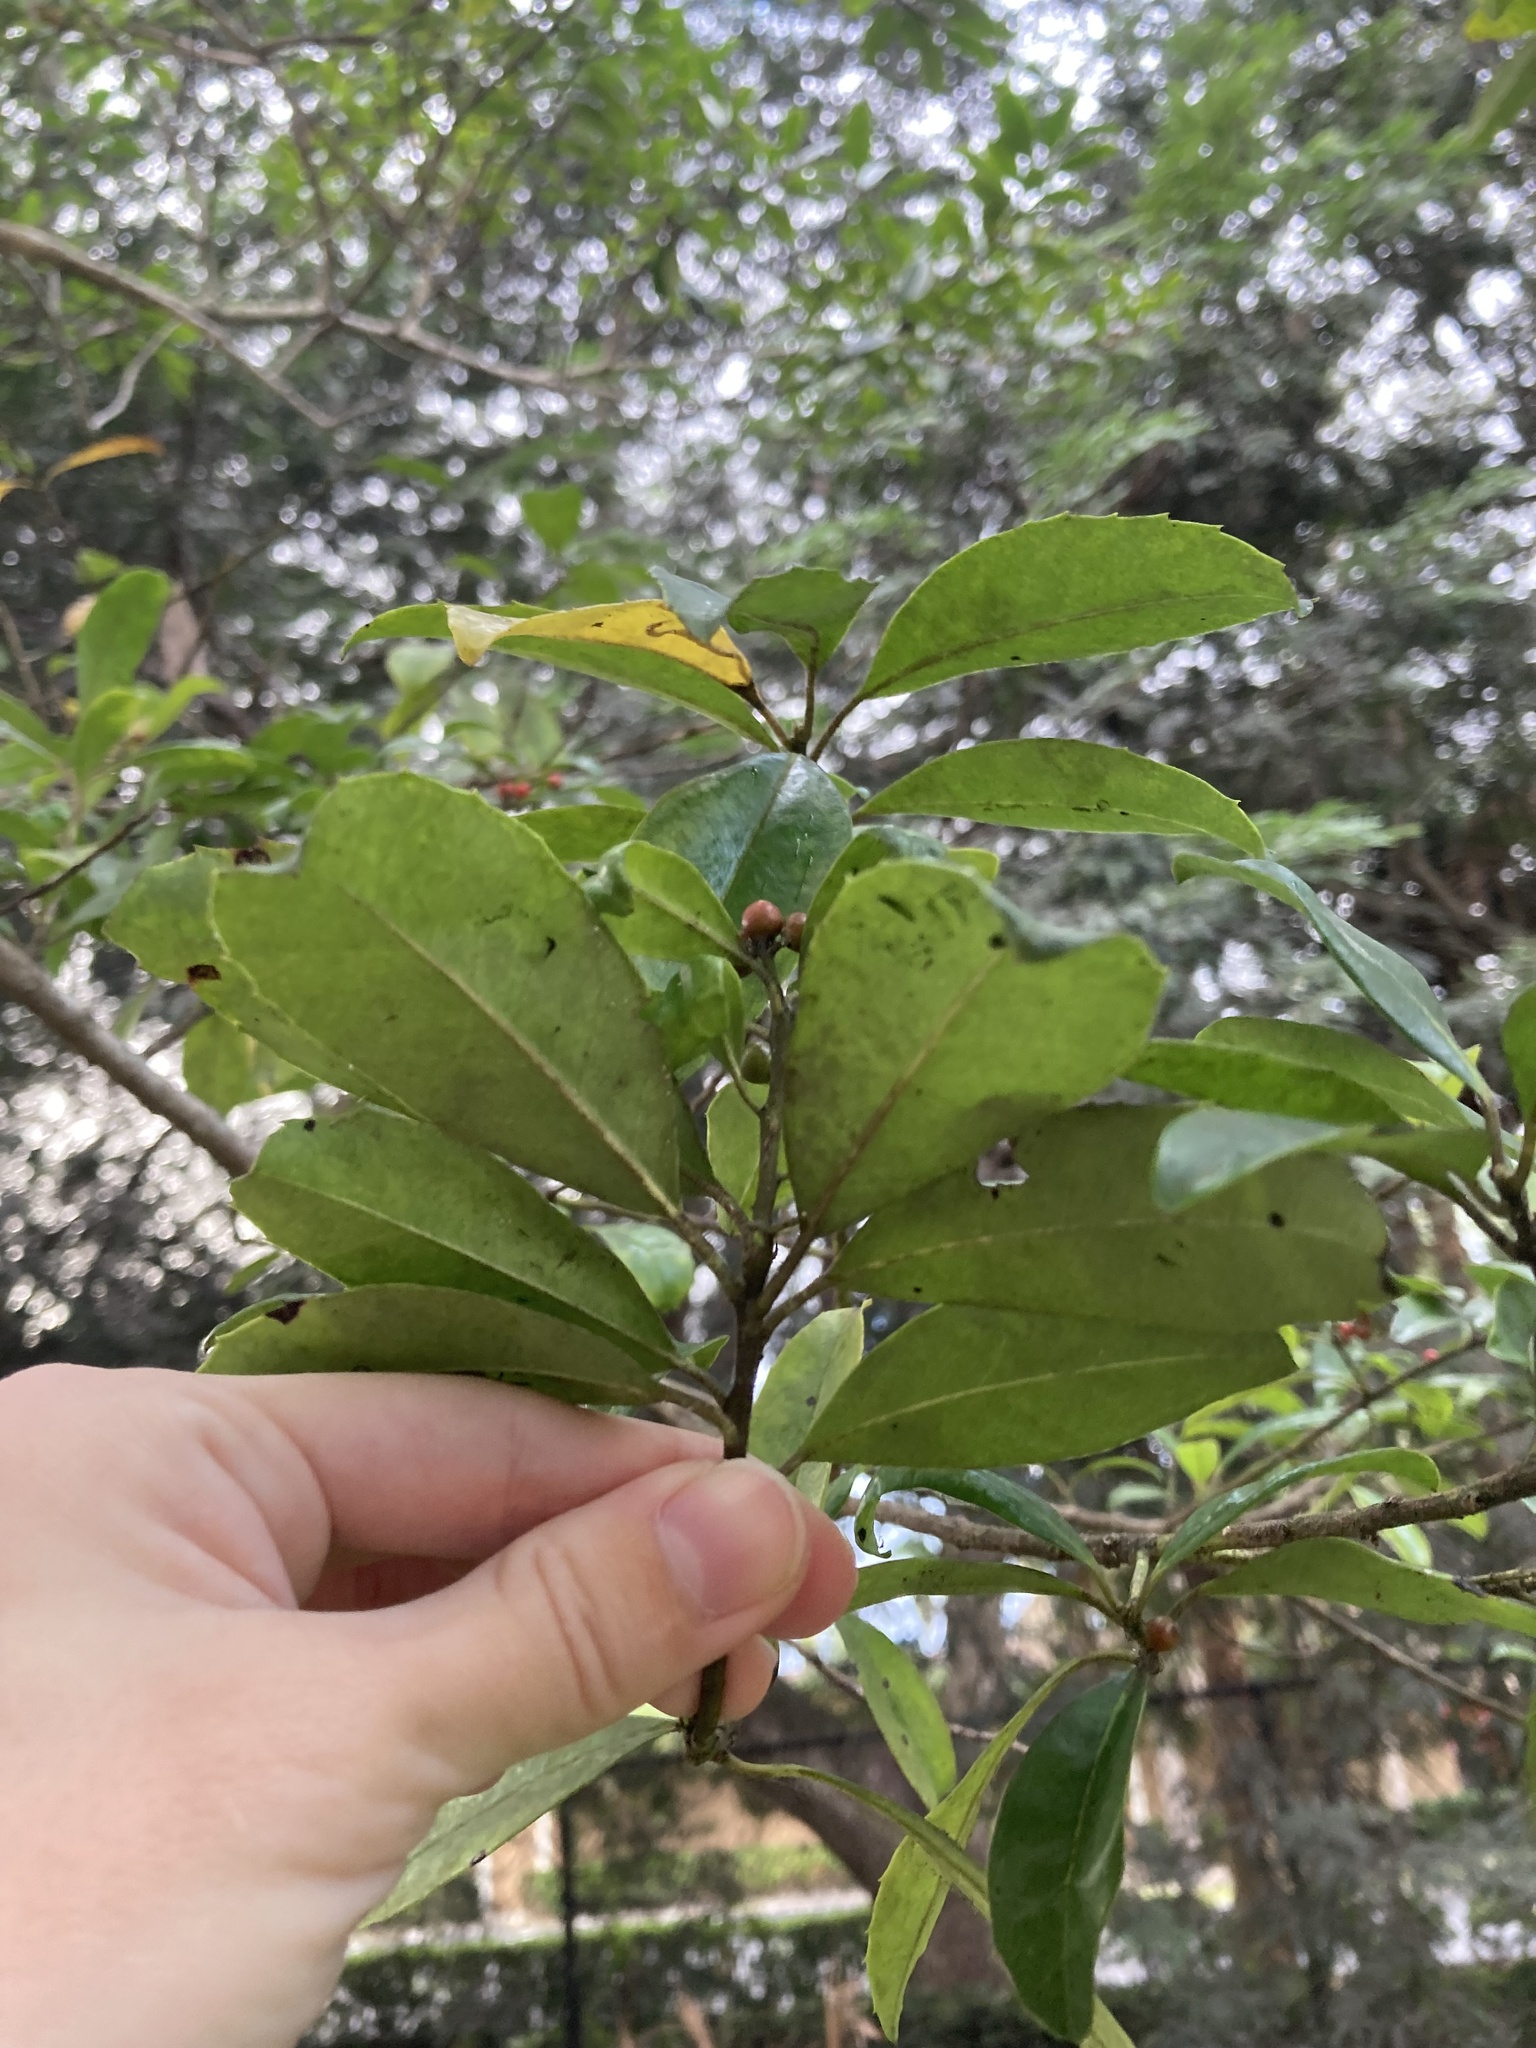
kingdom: Plantae
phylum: Tracheophyta
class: Magnoliopsida
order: Aquifoliales
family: Aquifoliaceae
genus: Ilex
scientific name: Ilex cassine
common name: Dahoon
